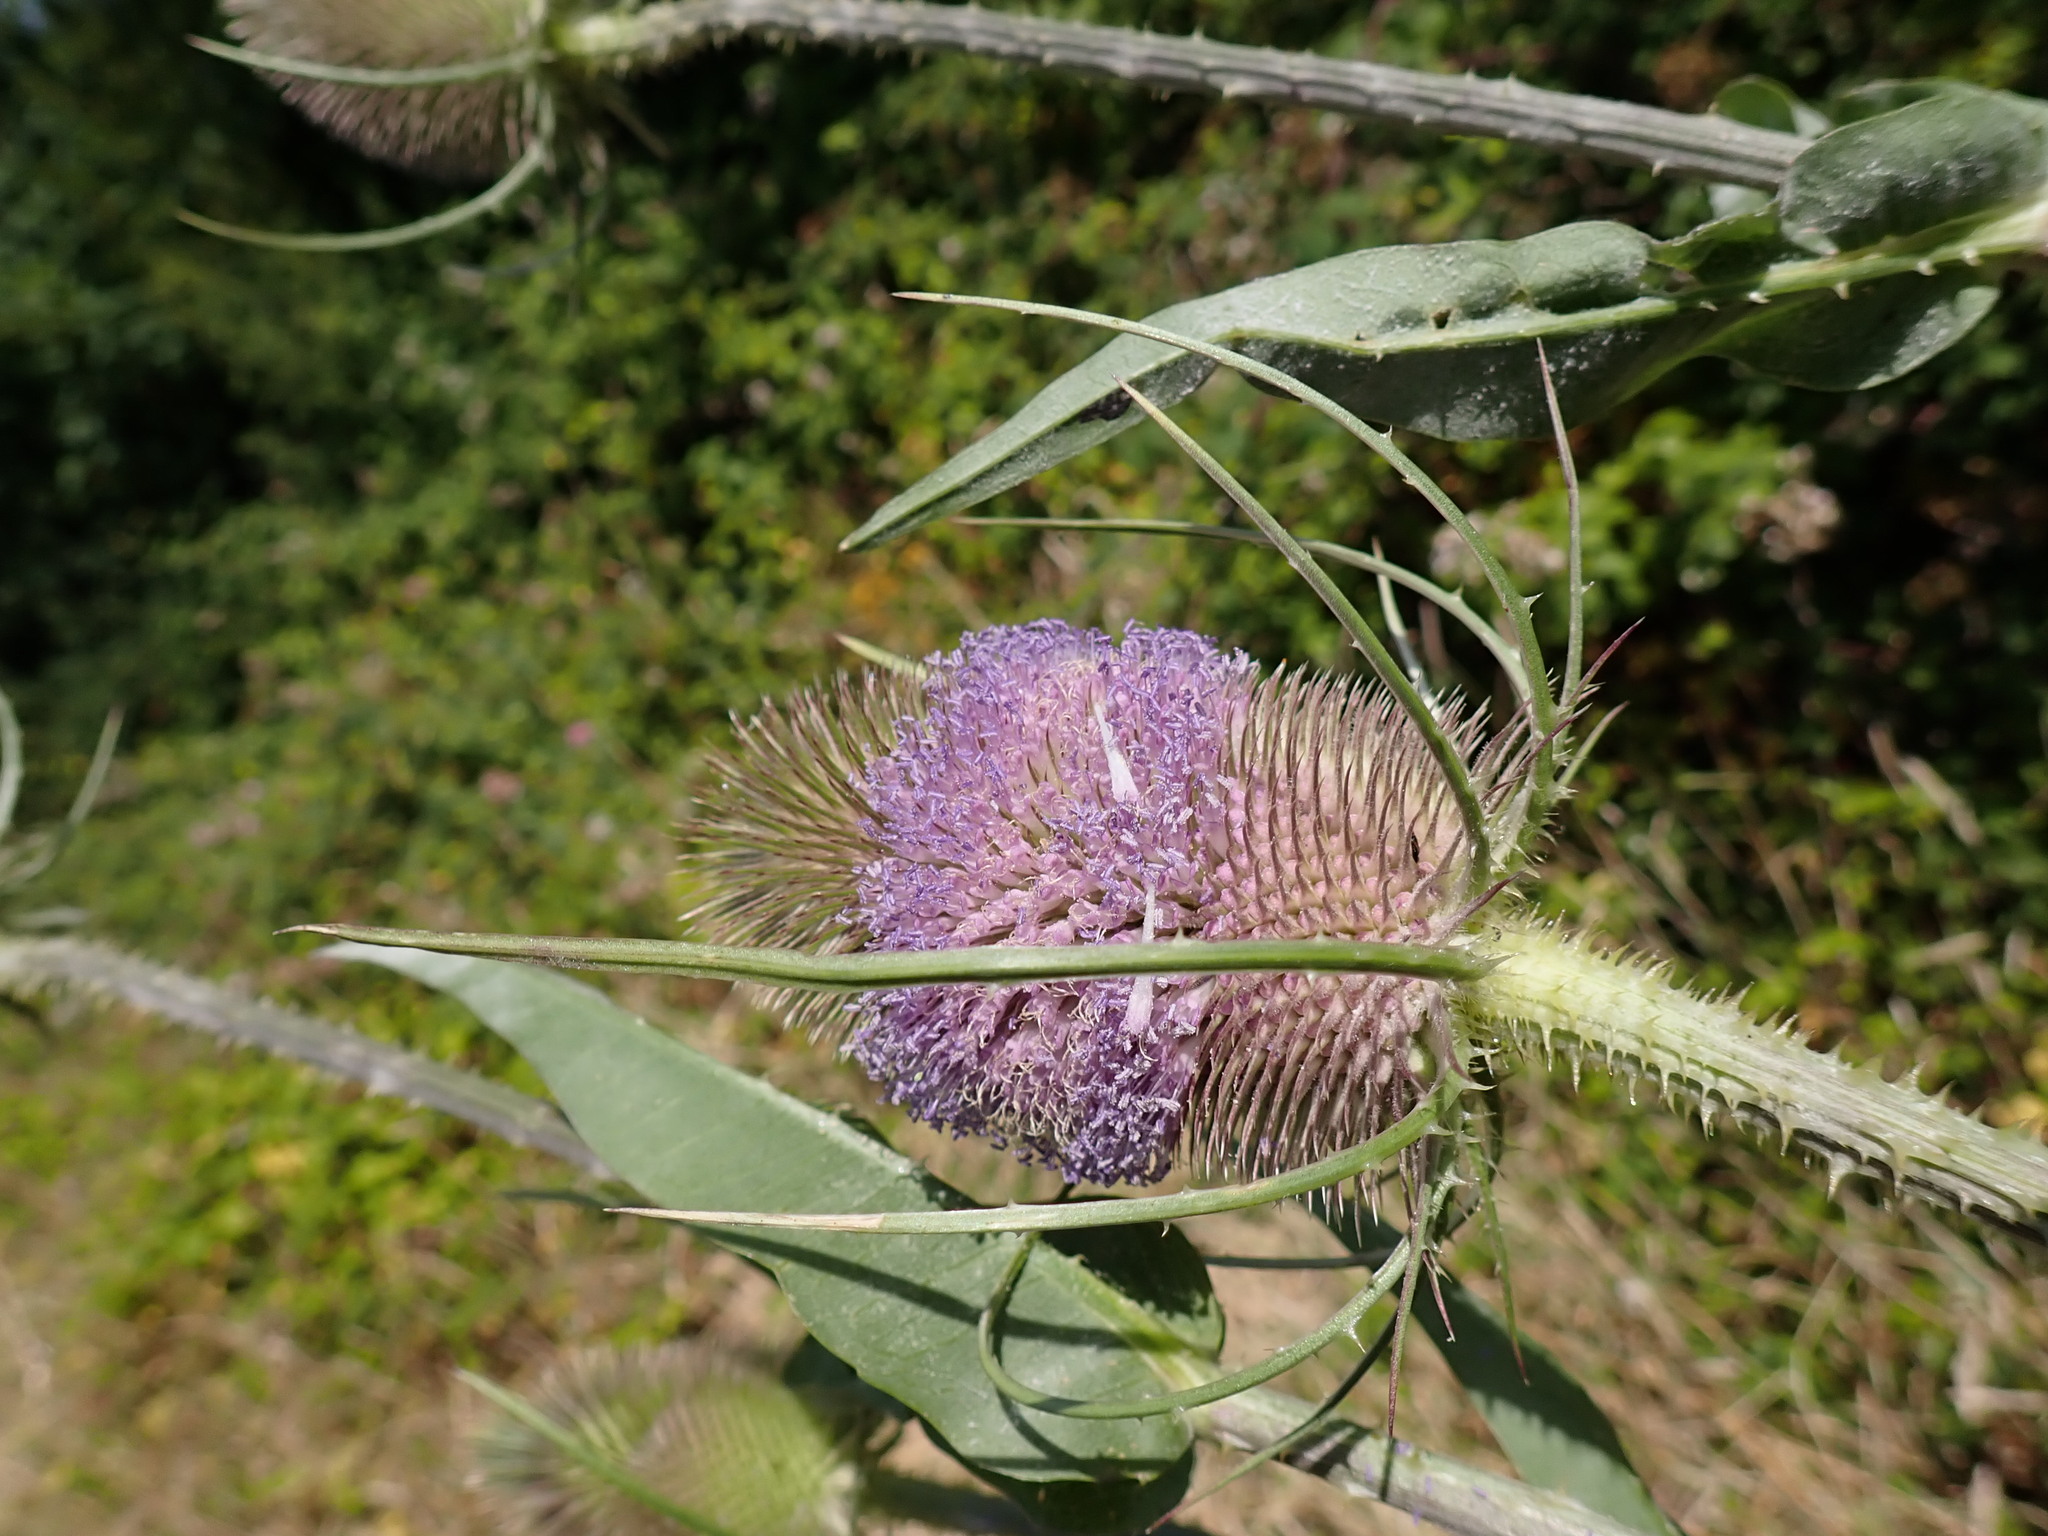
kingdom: Plantae
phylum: Tracheophyta
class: Magnoliopsida
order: Dipsacales
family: Caprifoliaceae
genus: Dipsacus
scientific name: Dipsacus fullonum
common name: Teasel
